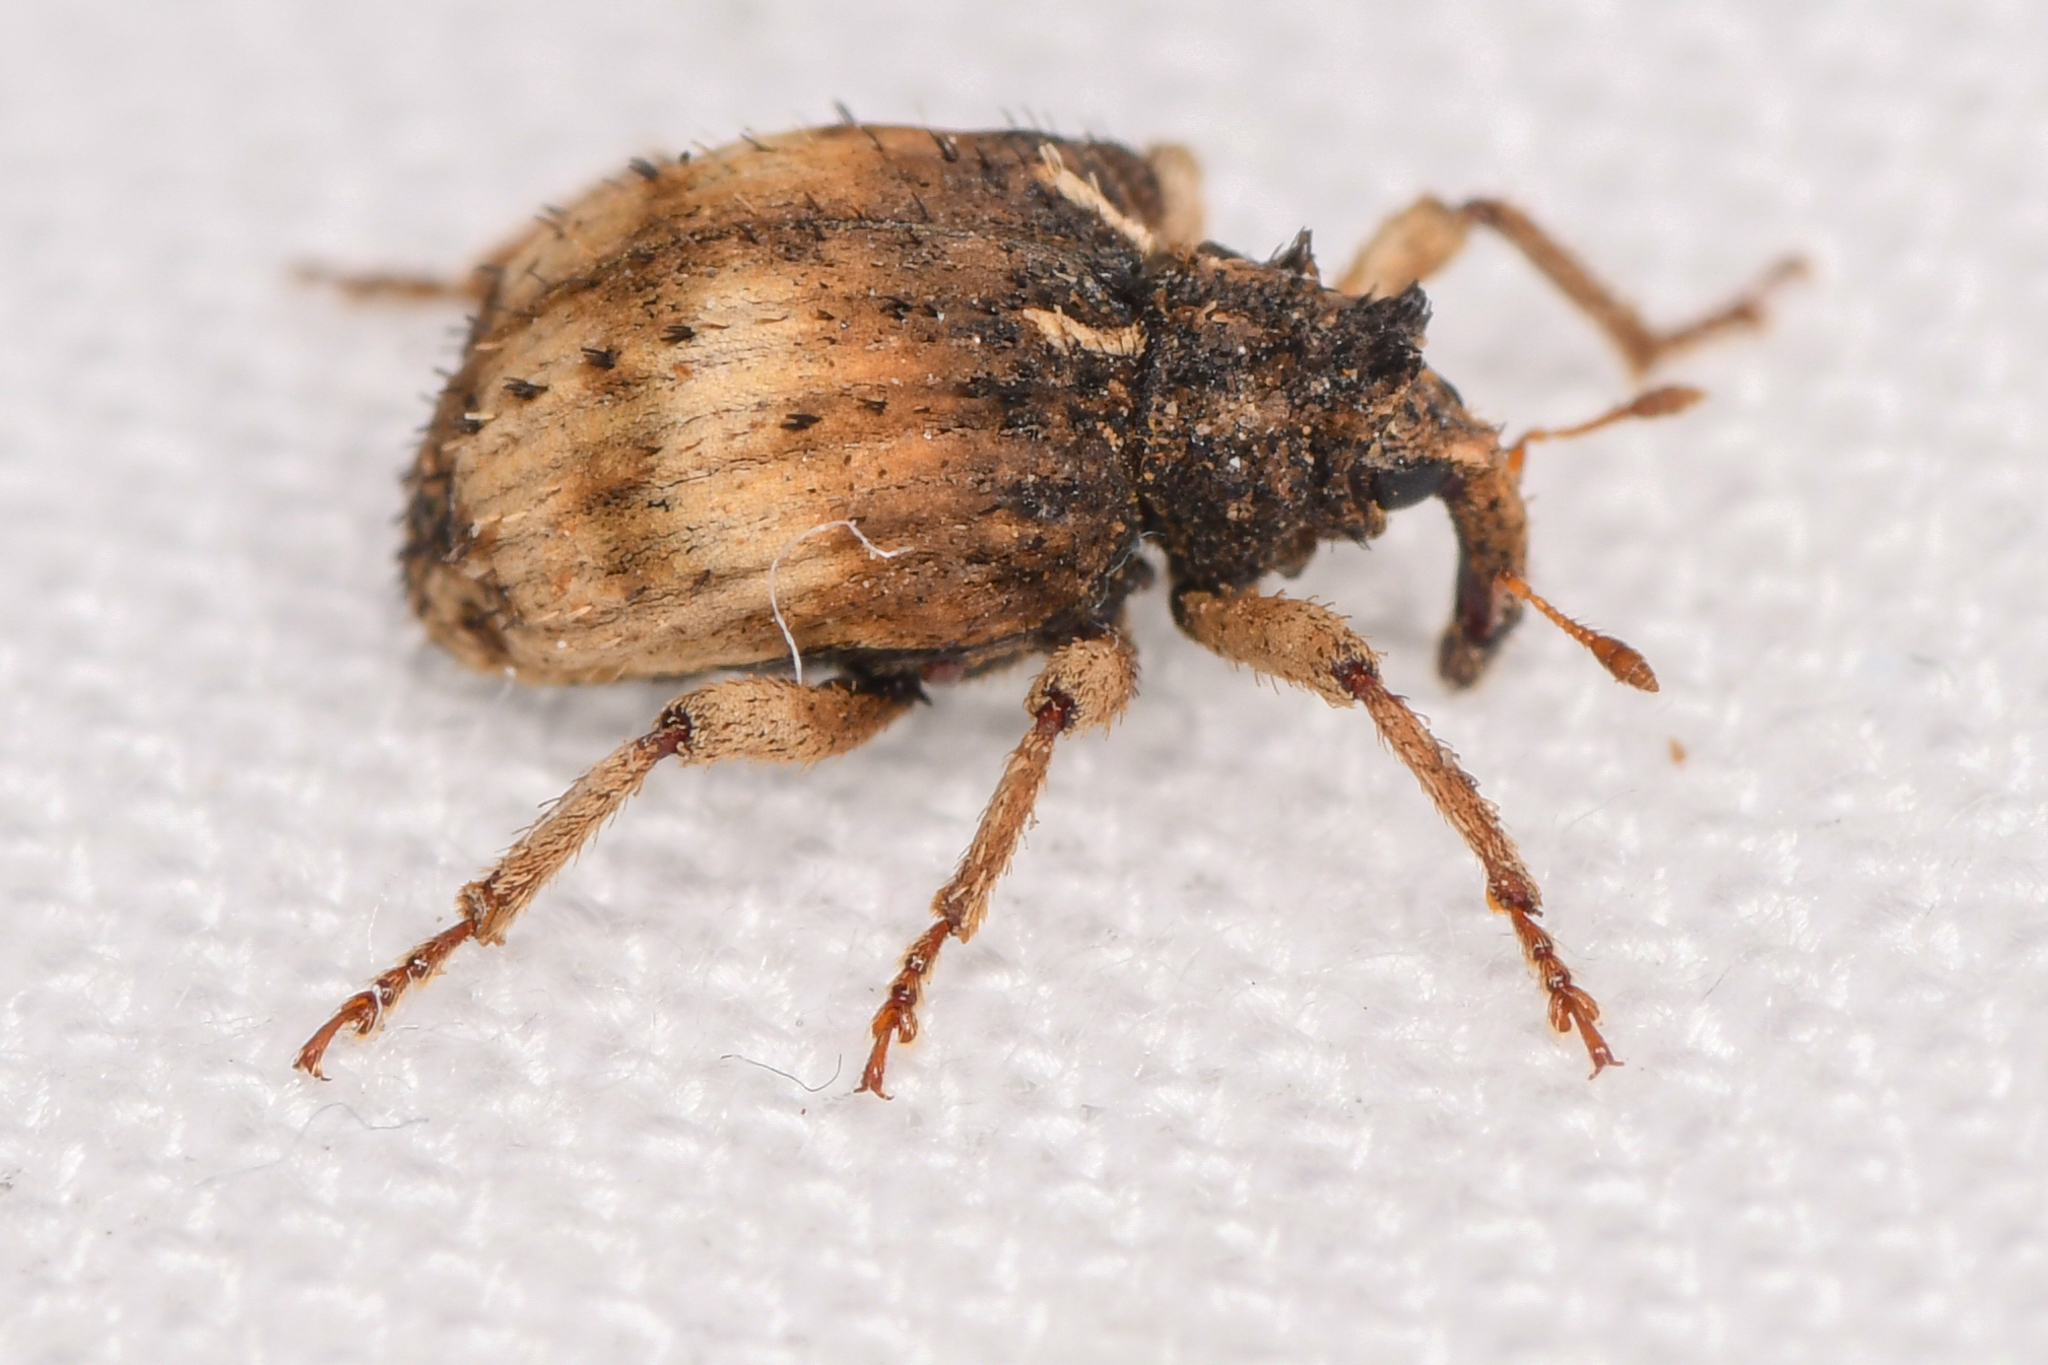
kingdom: Animalia
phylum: Arthropoda
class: Insecta
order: Coleoptera
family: Curculionidae
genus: Phyrdenus
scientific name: Phyrdenus divergens
